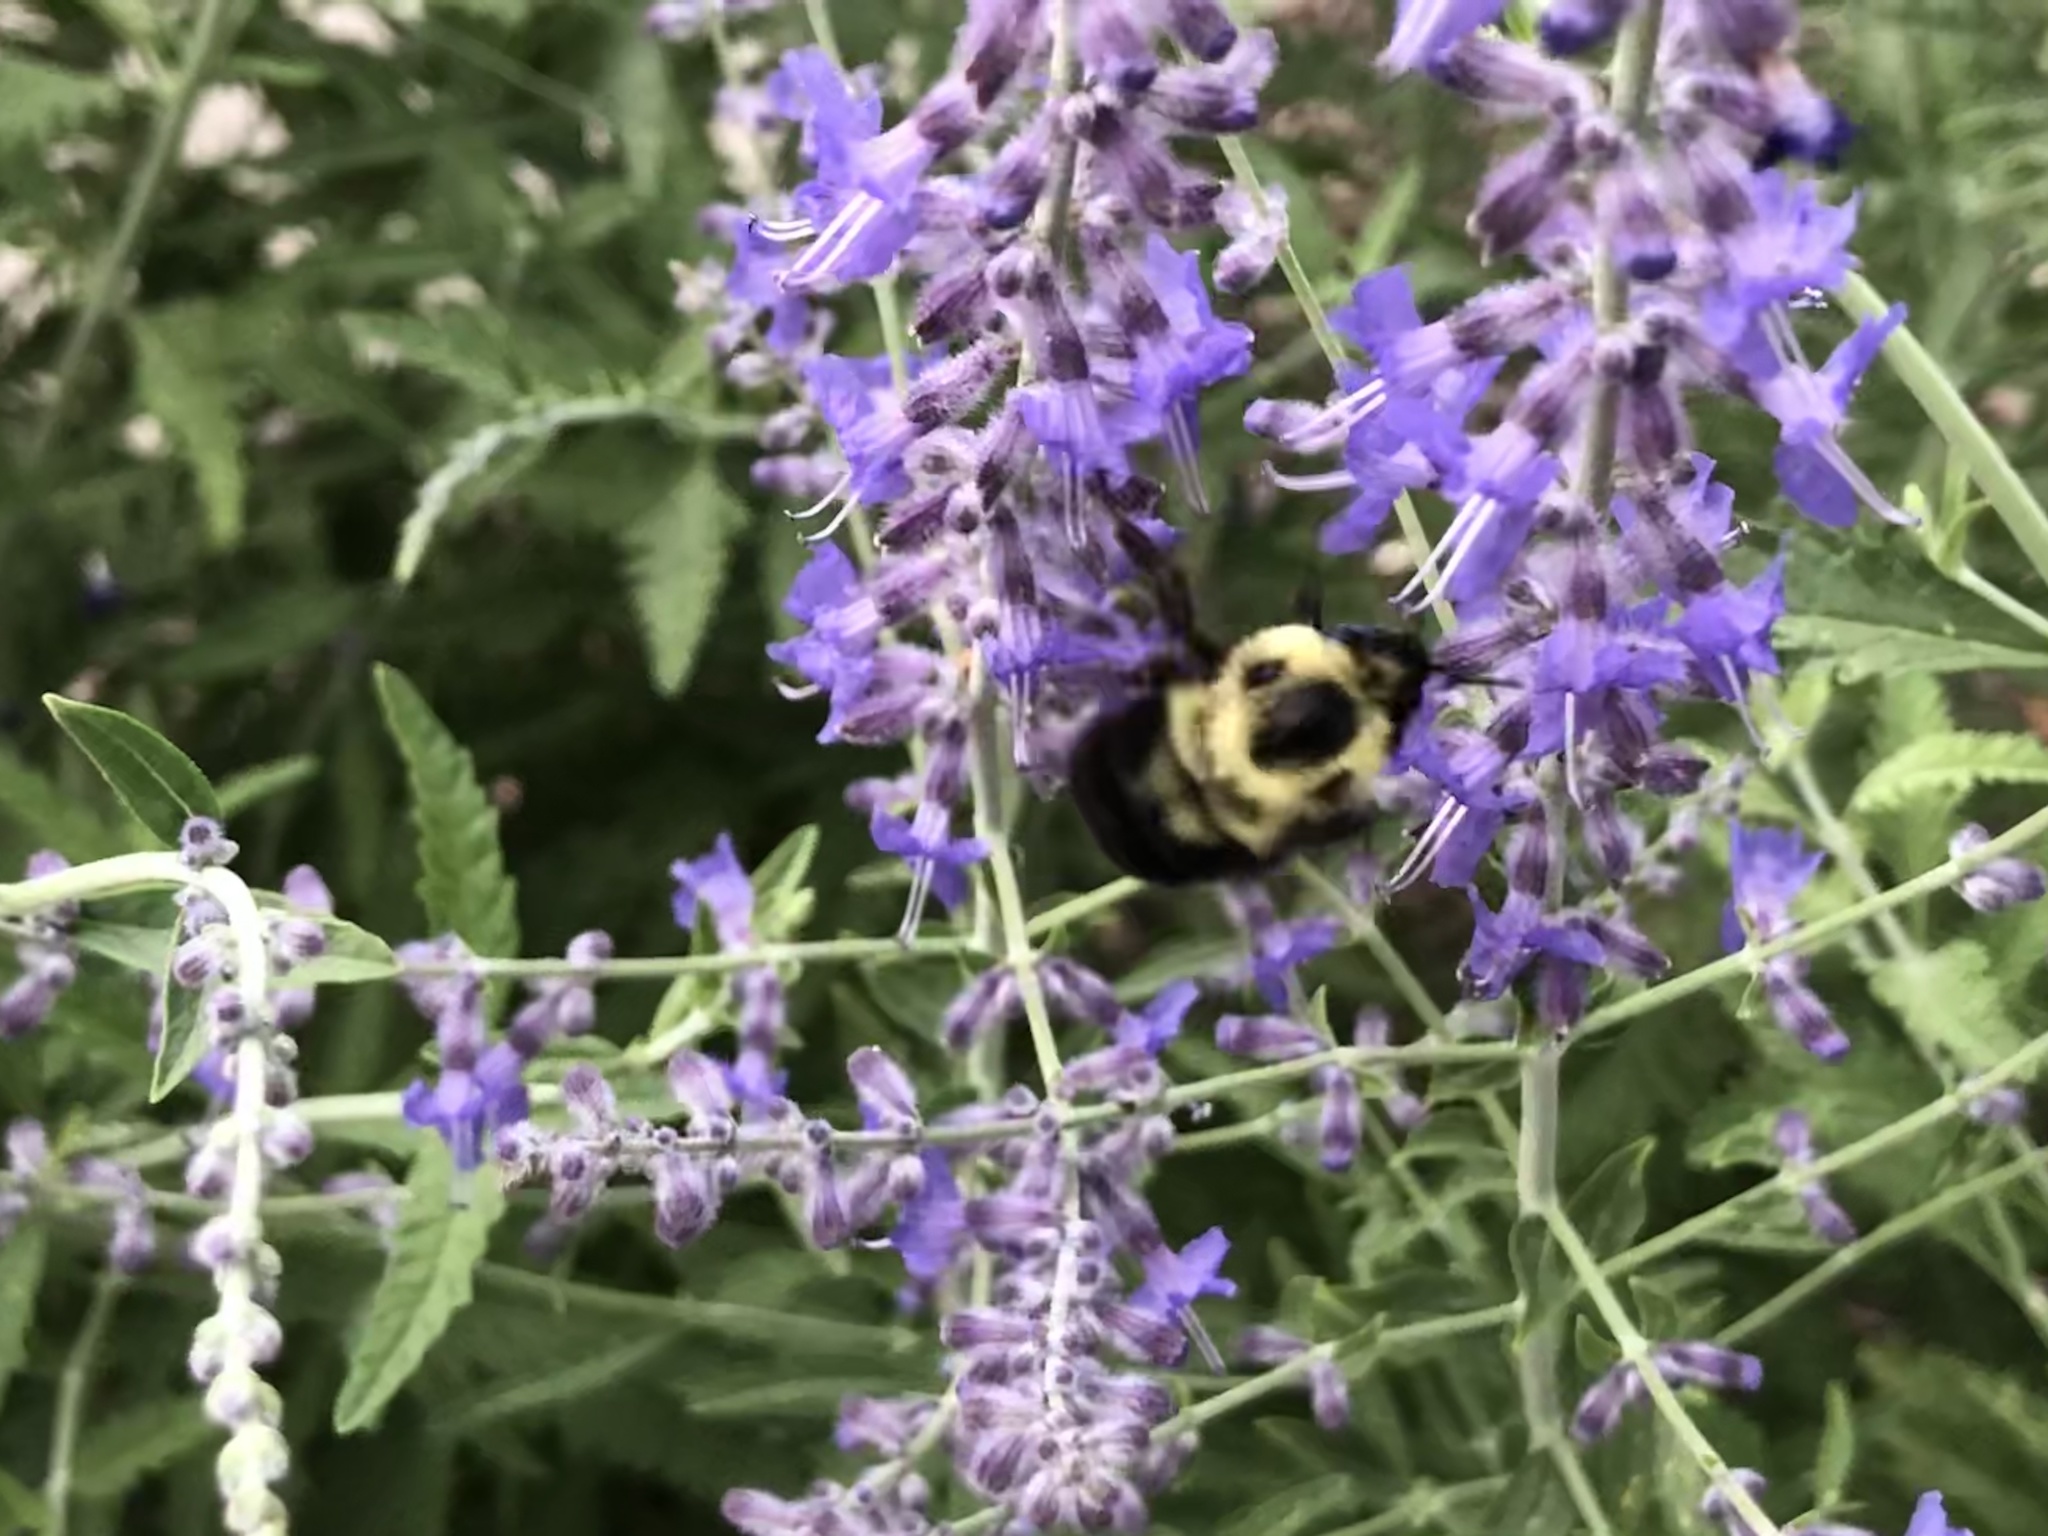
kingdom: Animalia
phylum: Arthropoda
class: Insecta
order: Hymenoptera
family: Apidae
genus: Bombus
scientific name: Bombus bimaculatus
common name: Two-spotted bumble bee
